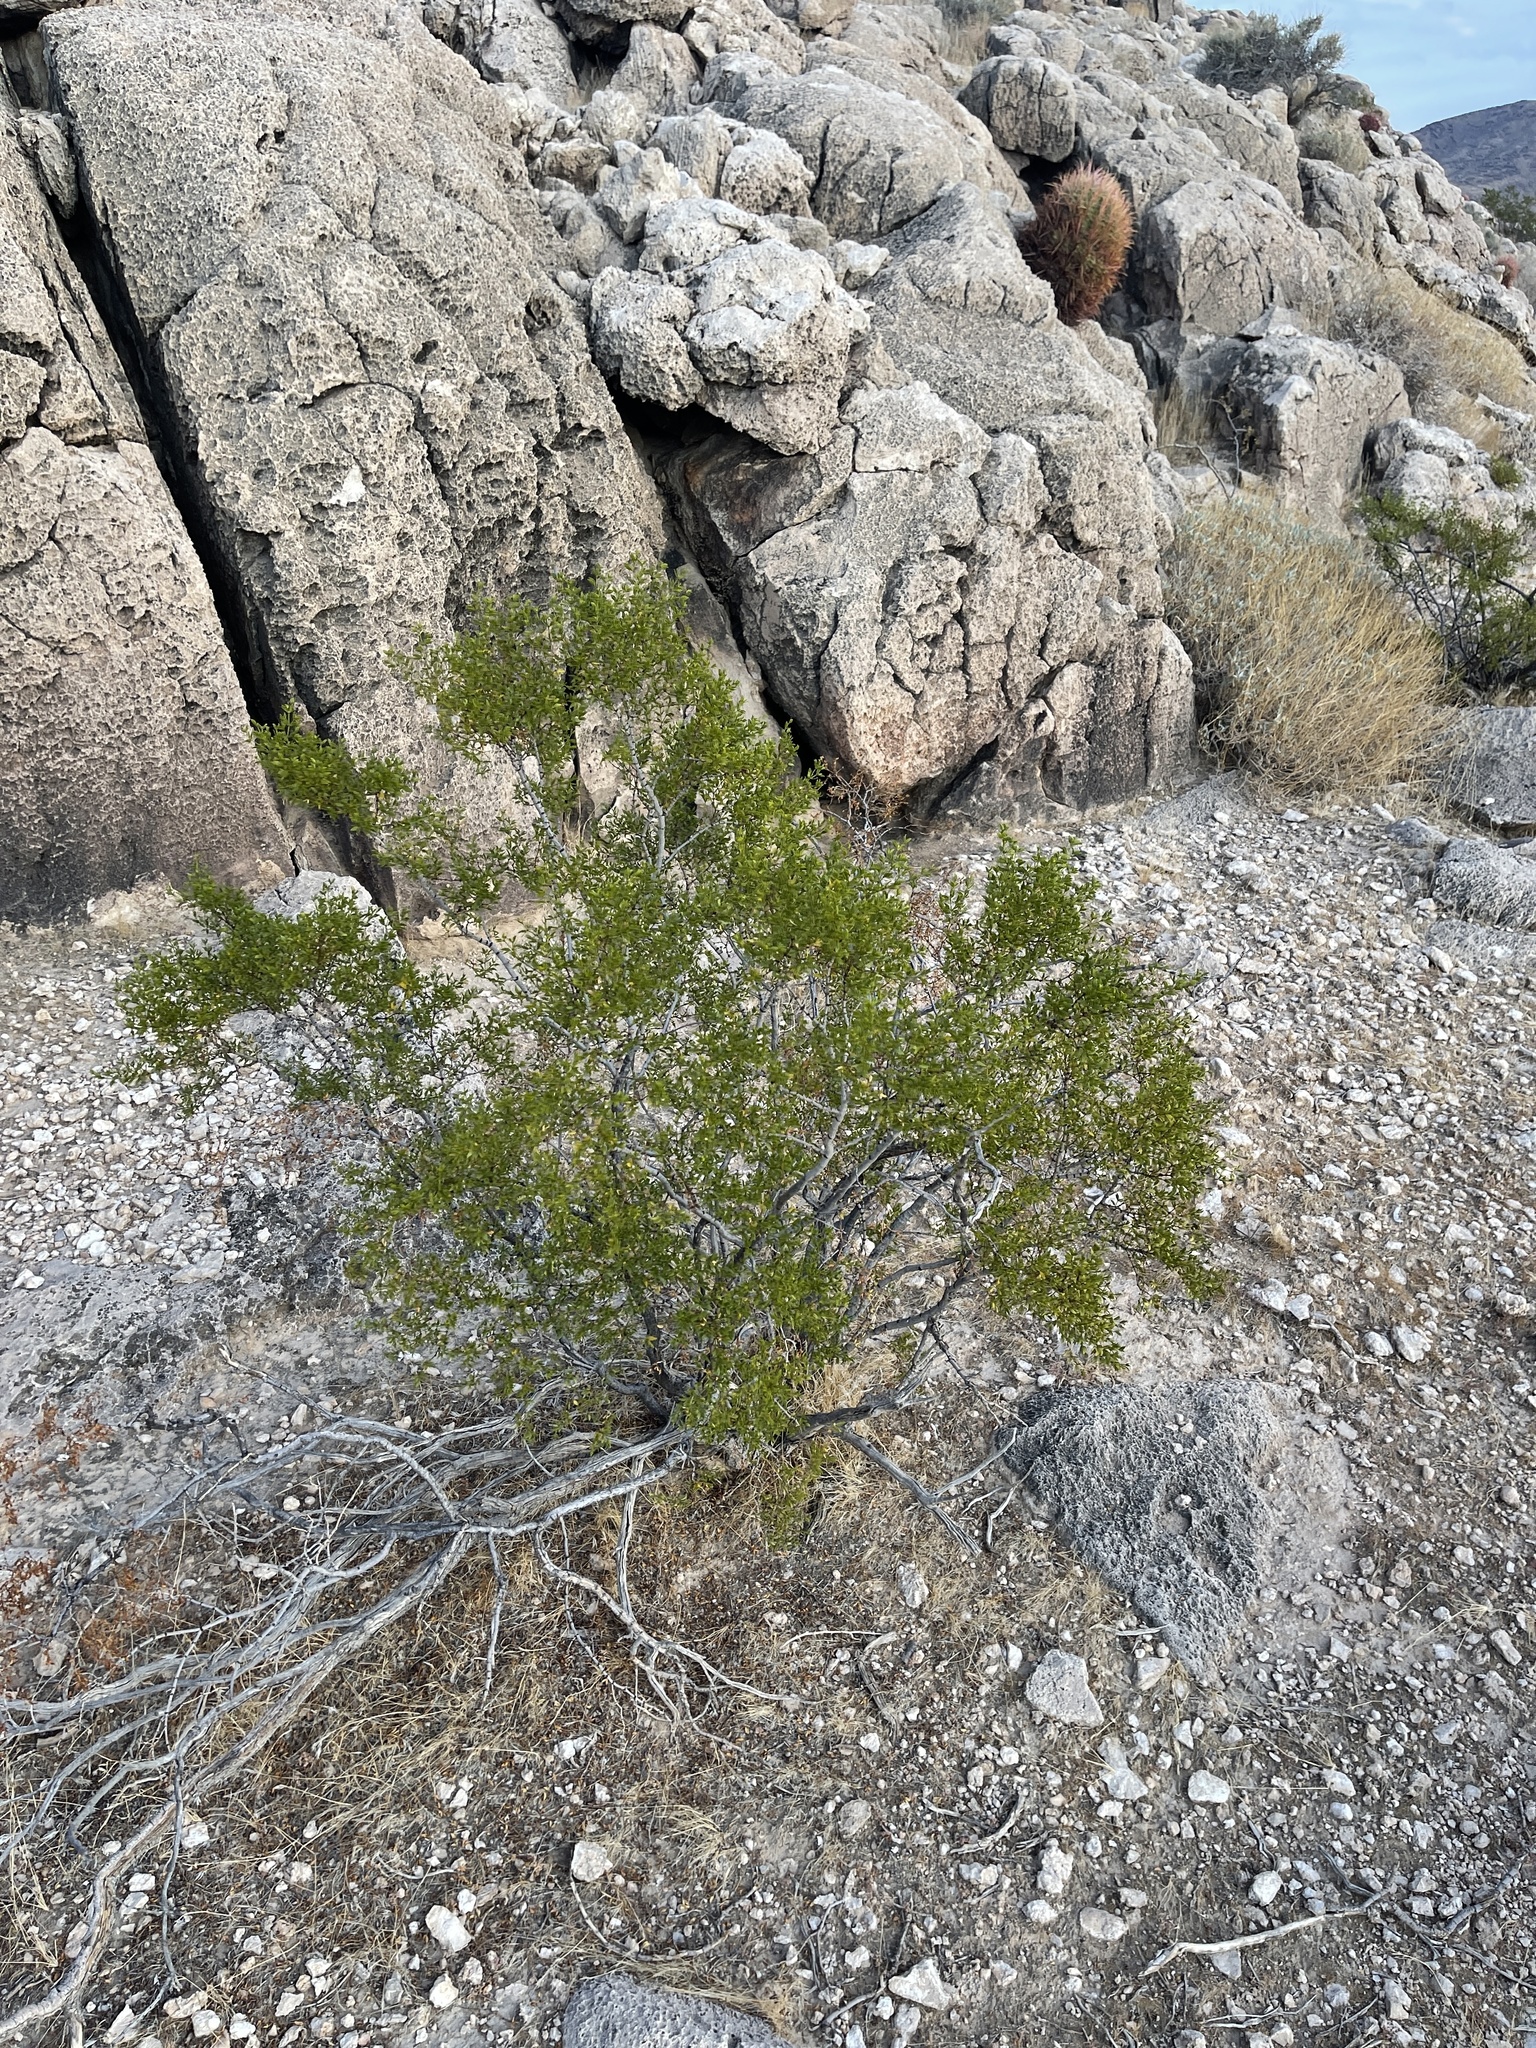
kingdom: Plantae
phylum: Tracheophyta
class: Magnoliopsida
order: Zygophyllales
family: Zygophyllaceae
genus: Larrea
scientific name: Larrea tridentata
